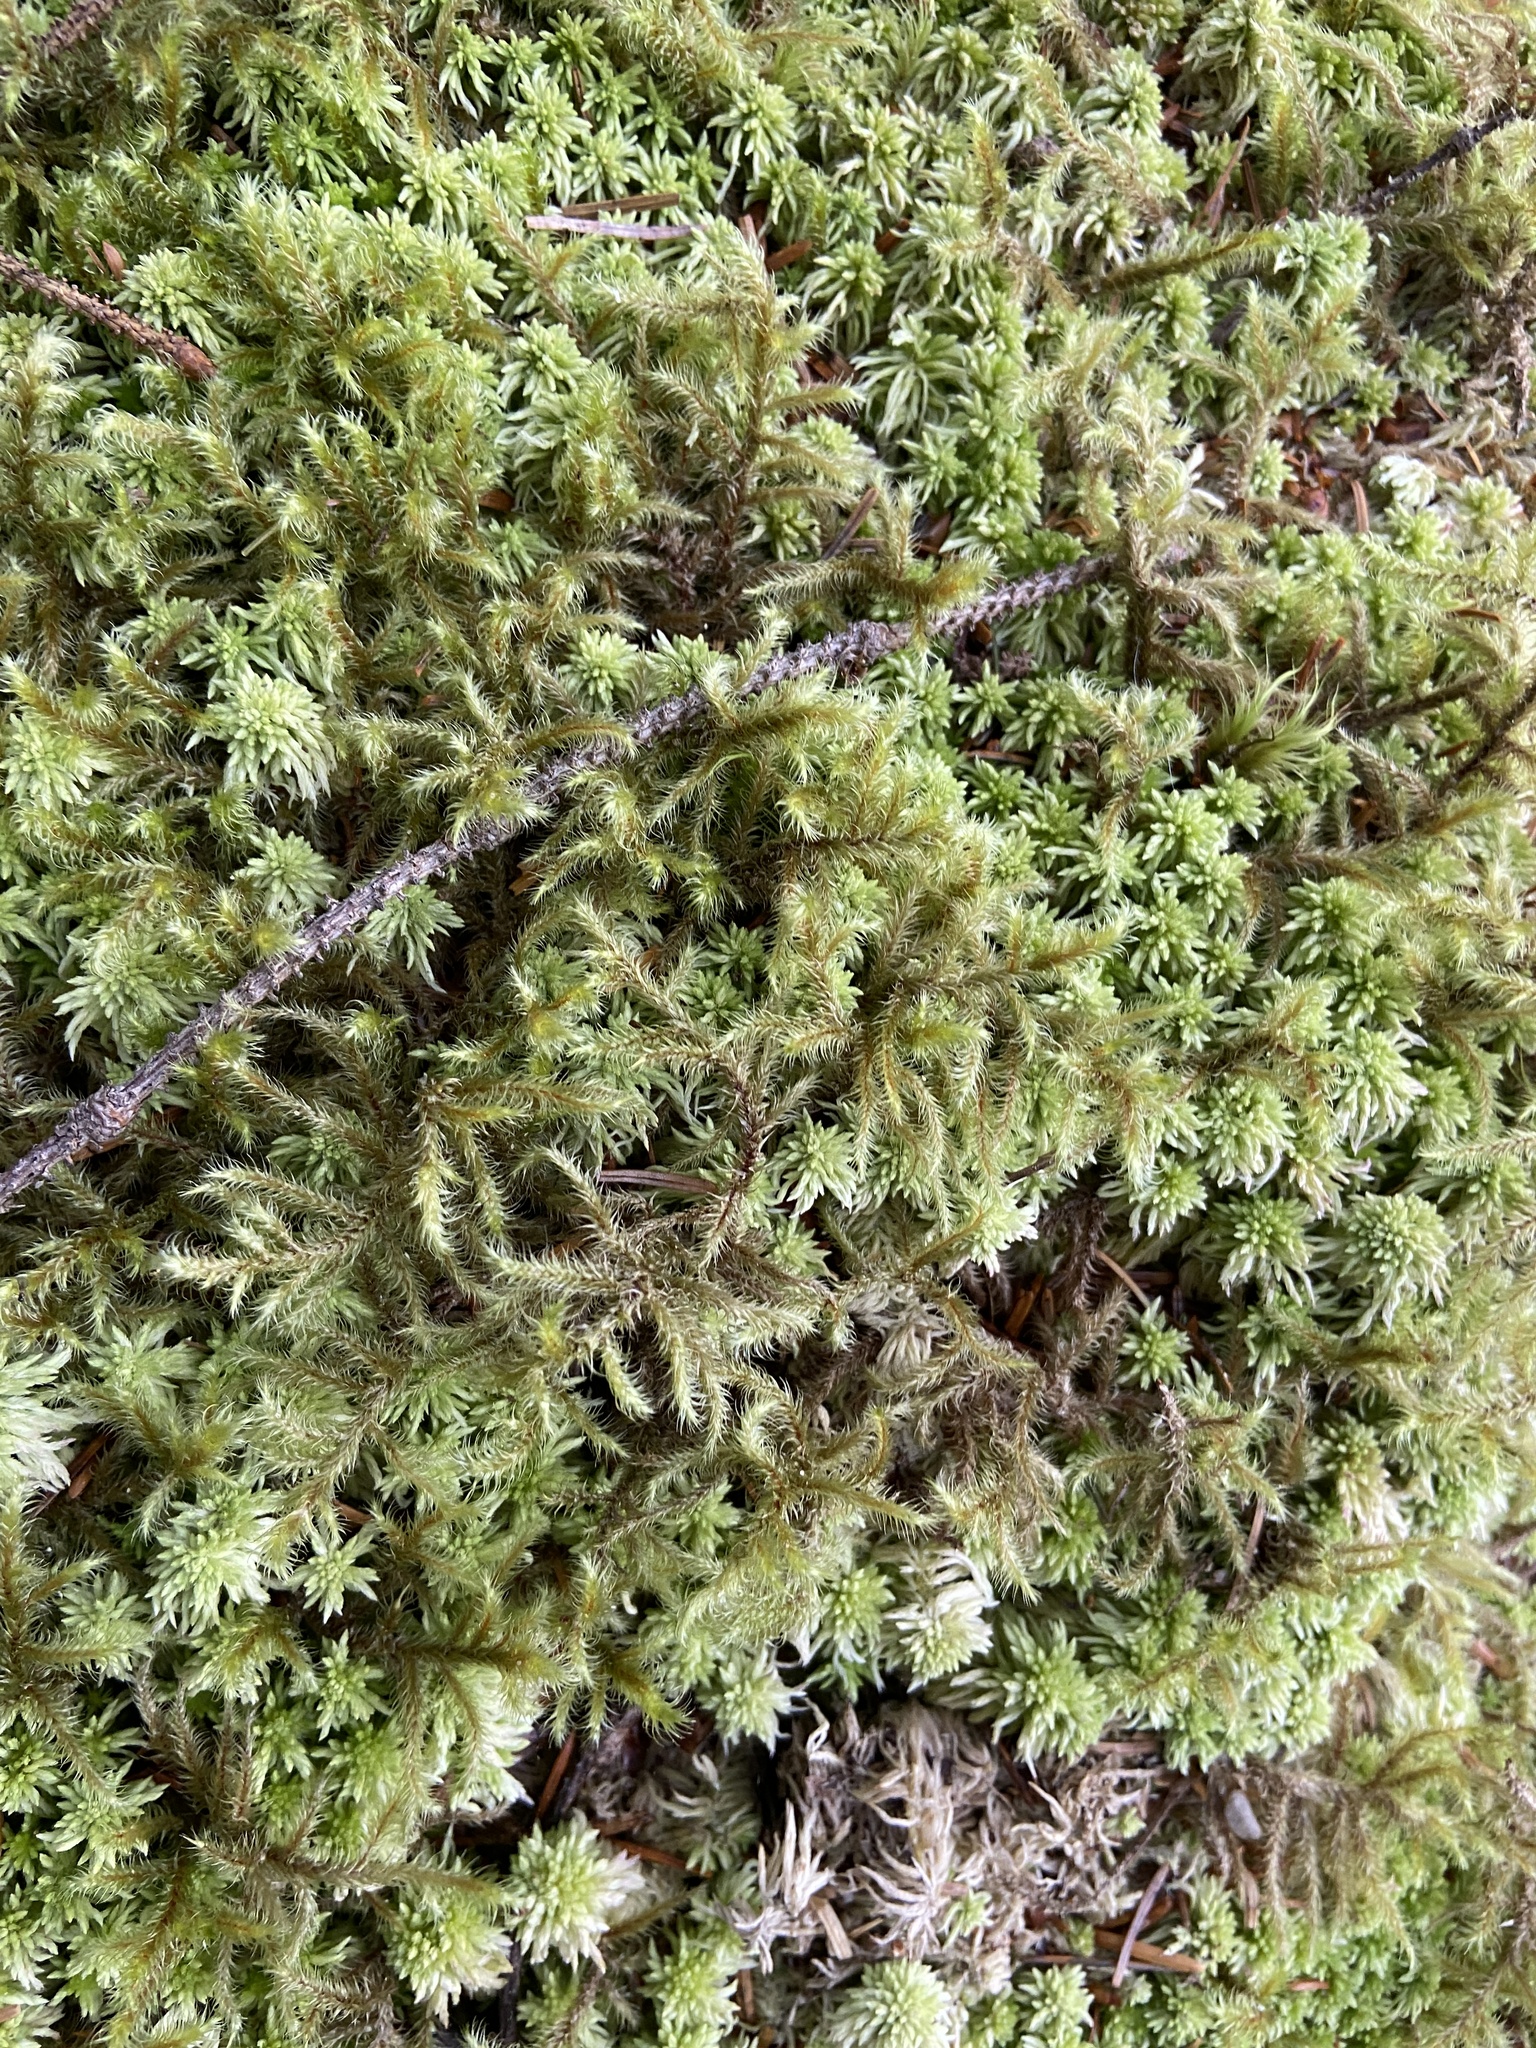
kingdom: Plantae
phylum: Bryophyta
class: Bryopsida
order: Hypnales
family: Hylocomiaceae
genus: Rhytidiadelphus
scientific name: Rhytidiadelphus loreus
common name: Lanky moss
